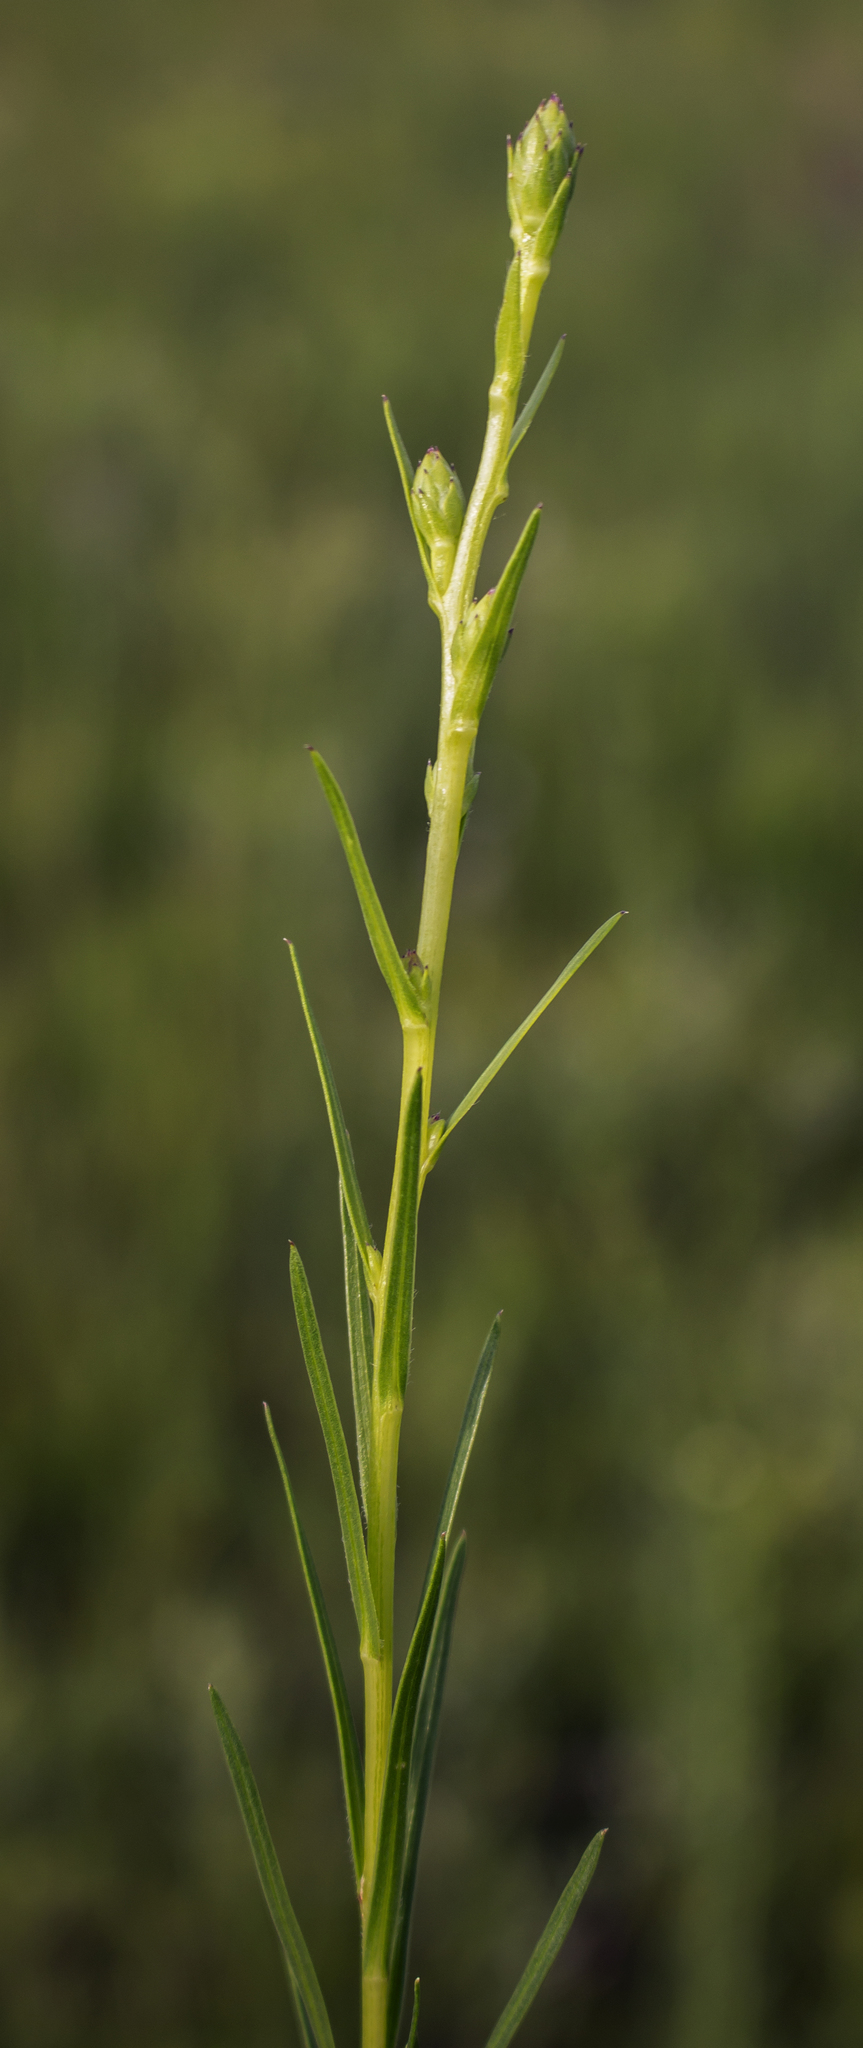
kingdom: Plantae
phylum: Tracheophyta
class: Magnoliopsida
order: Asterales
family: Asteraceae
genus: Liatris
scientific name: Liatris cylindracea
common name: Few-head blazingstar
